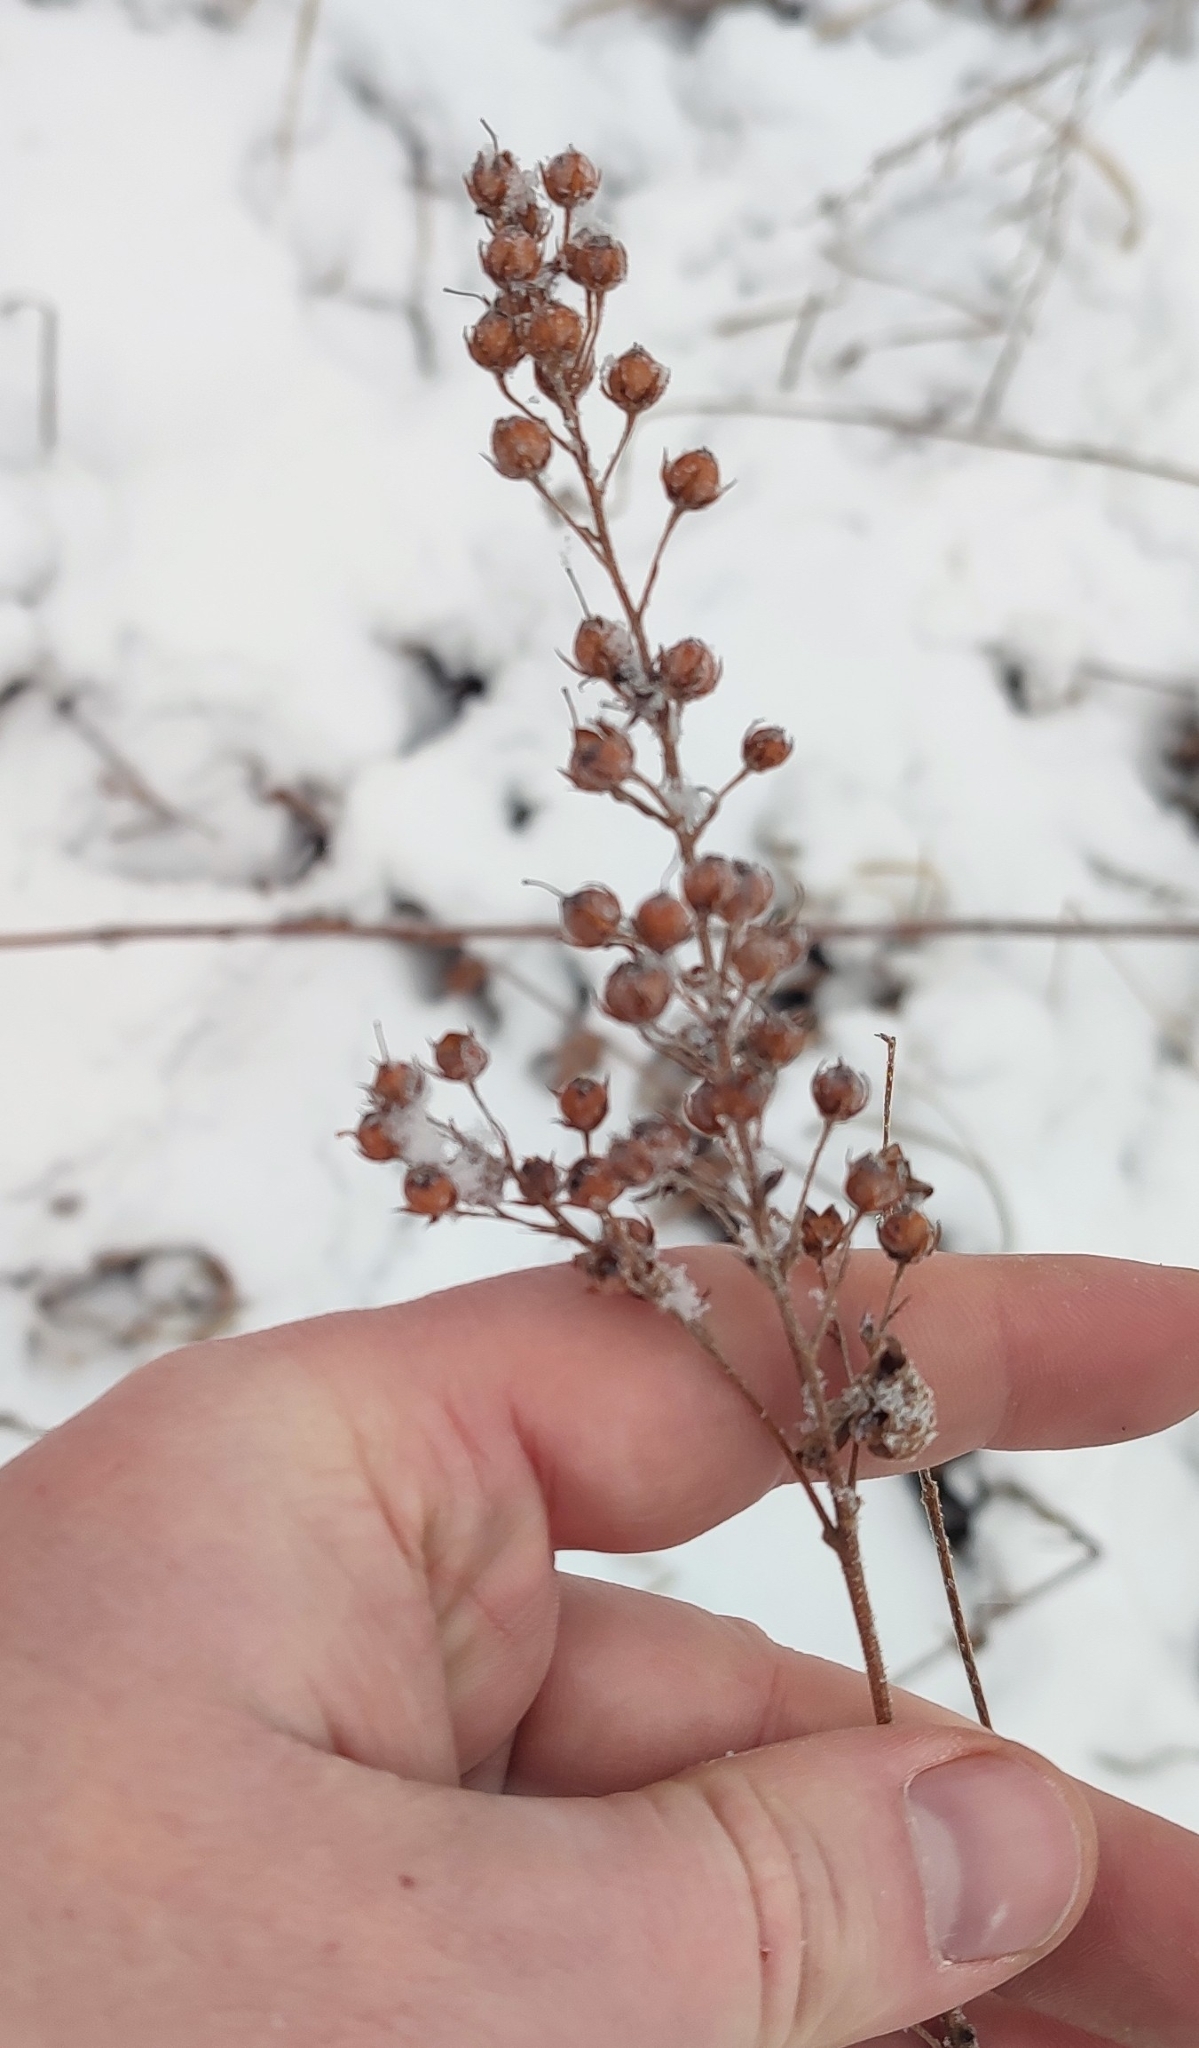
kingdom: Plantae
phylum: Tracheophyta
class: Magnoliopsida
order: Ericales
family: Primulaceae
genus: Lysimachia
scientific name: Lysimachia vulgaris
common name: Yellow loosestrife
